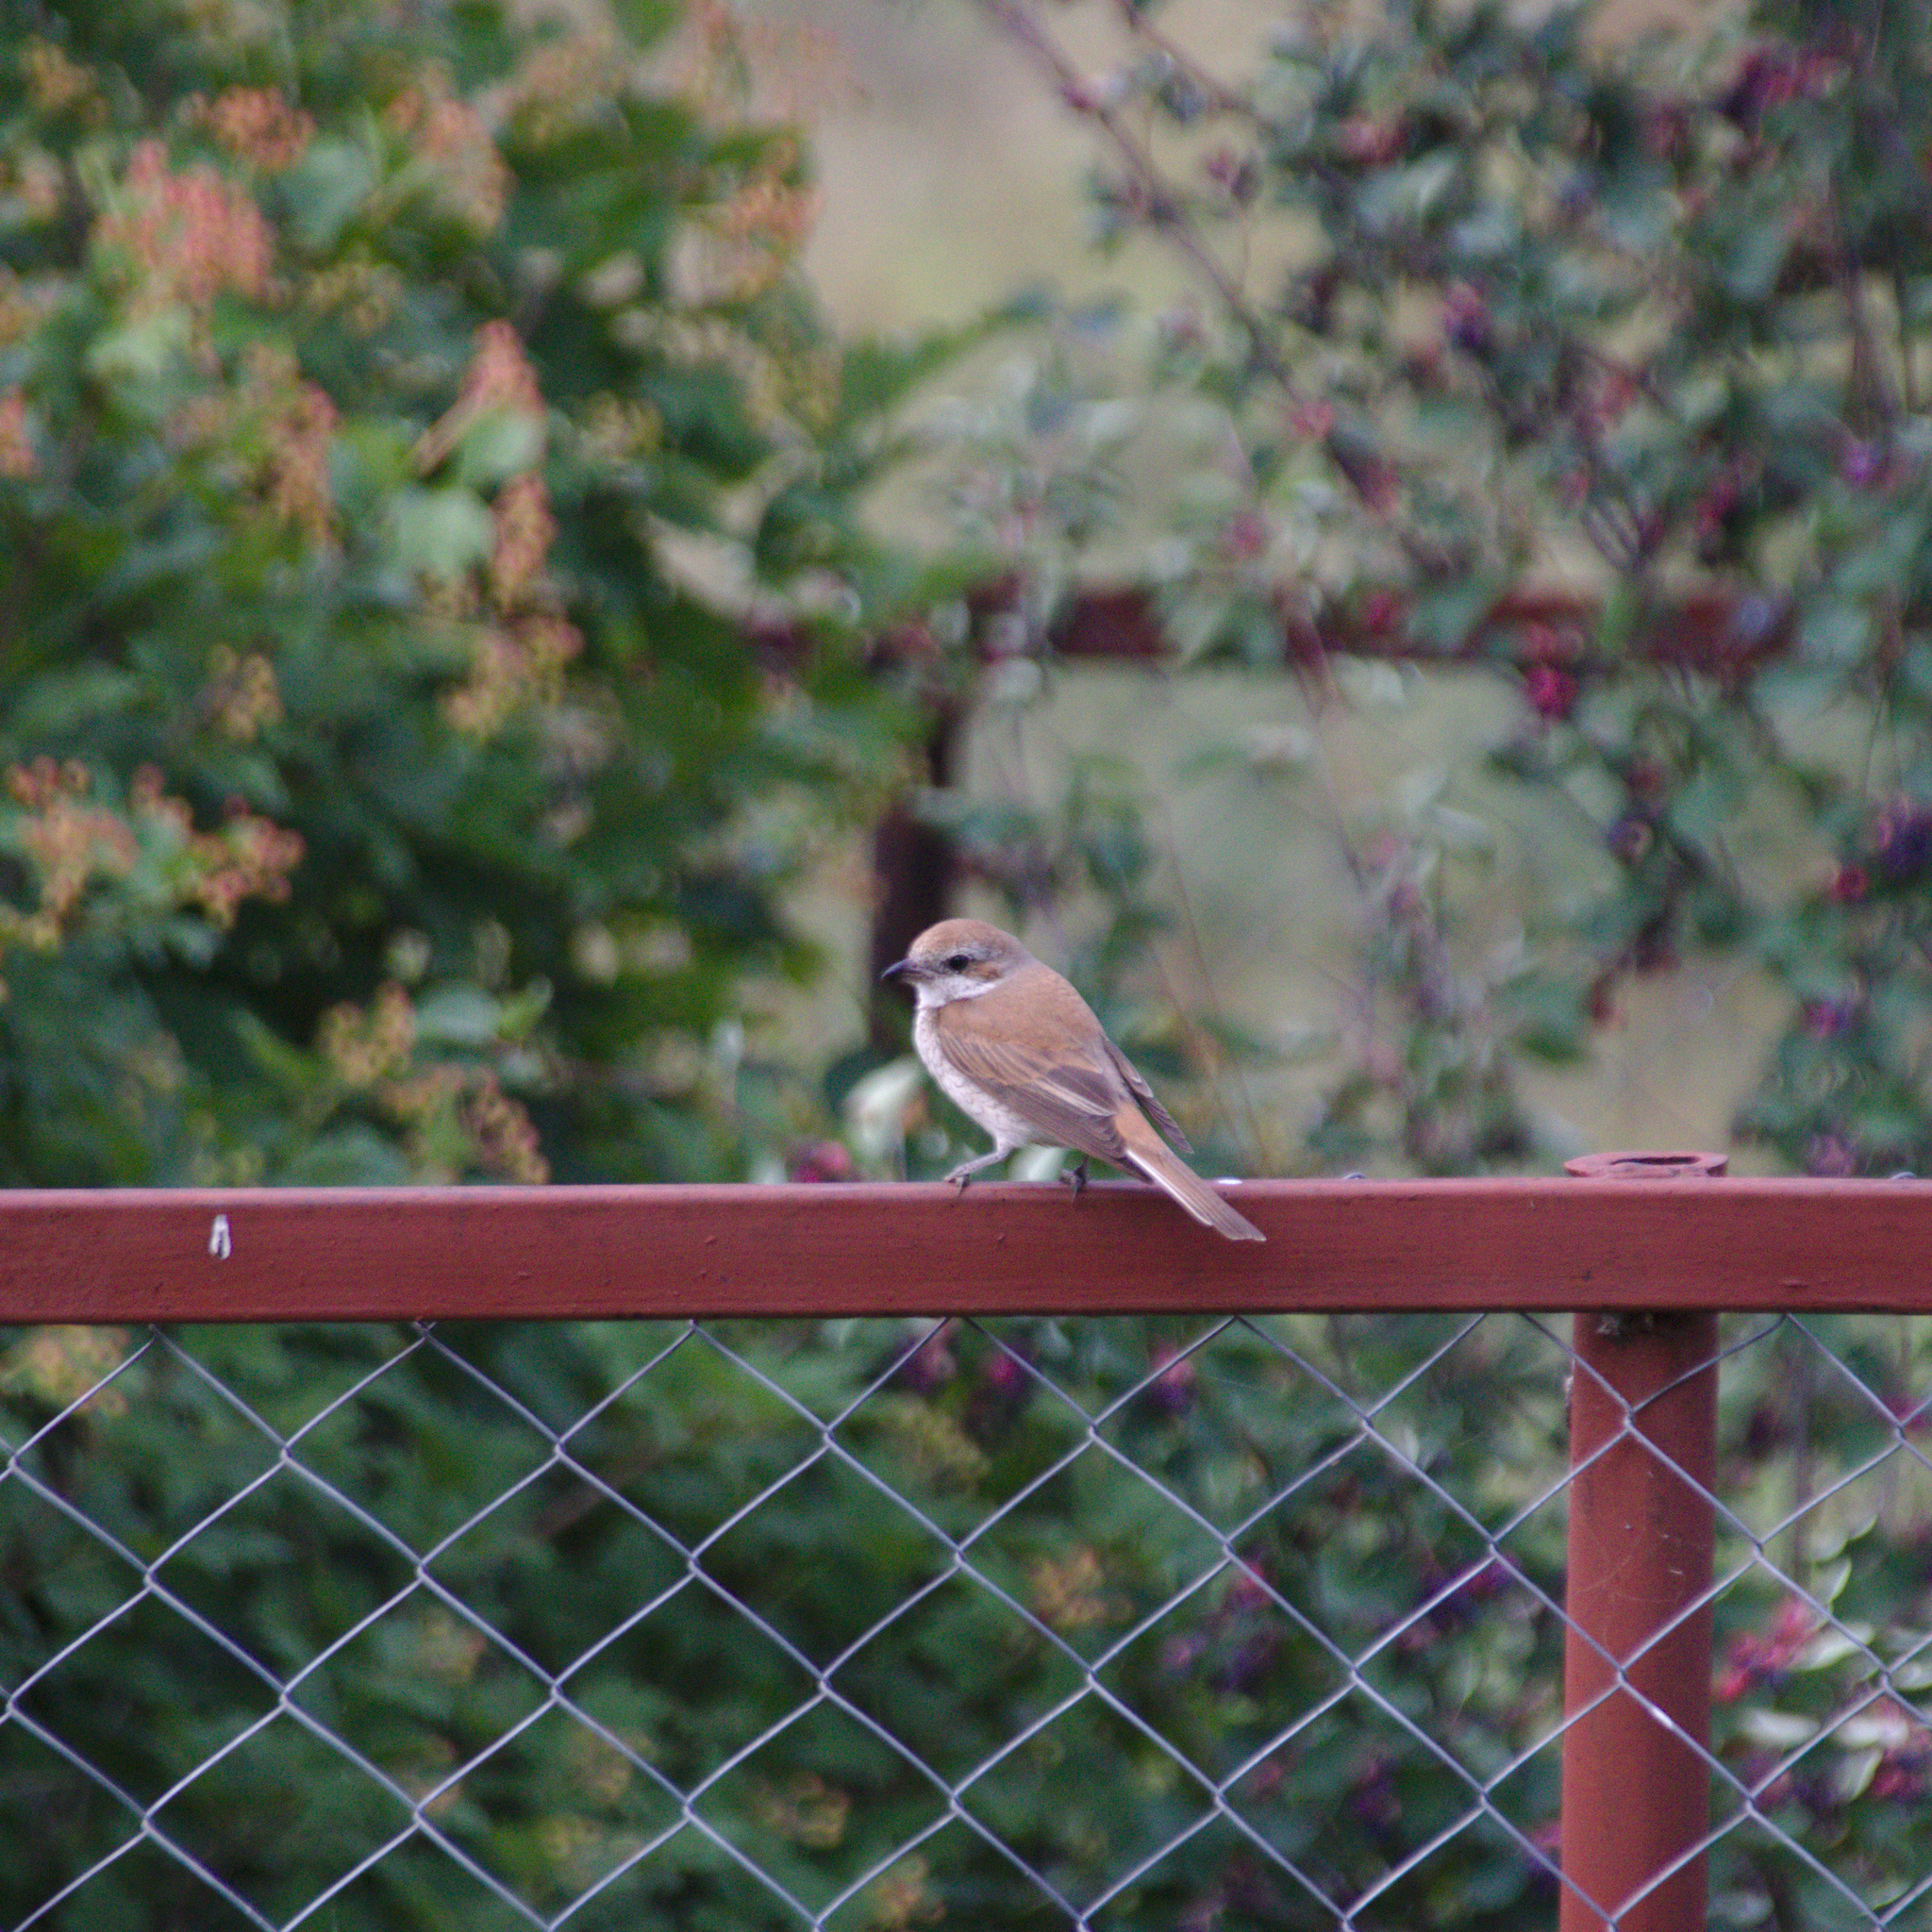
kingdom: Animalia
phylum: Chordata
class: Aves
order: Passeriformes
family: Laniidae
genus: Lanius
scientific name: Lanius collurio
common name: Red-backed shrike
